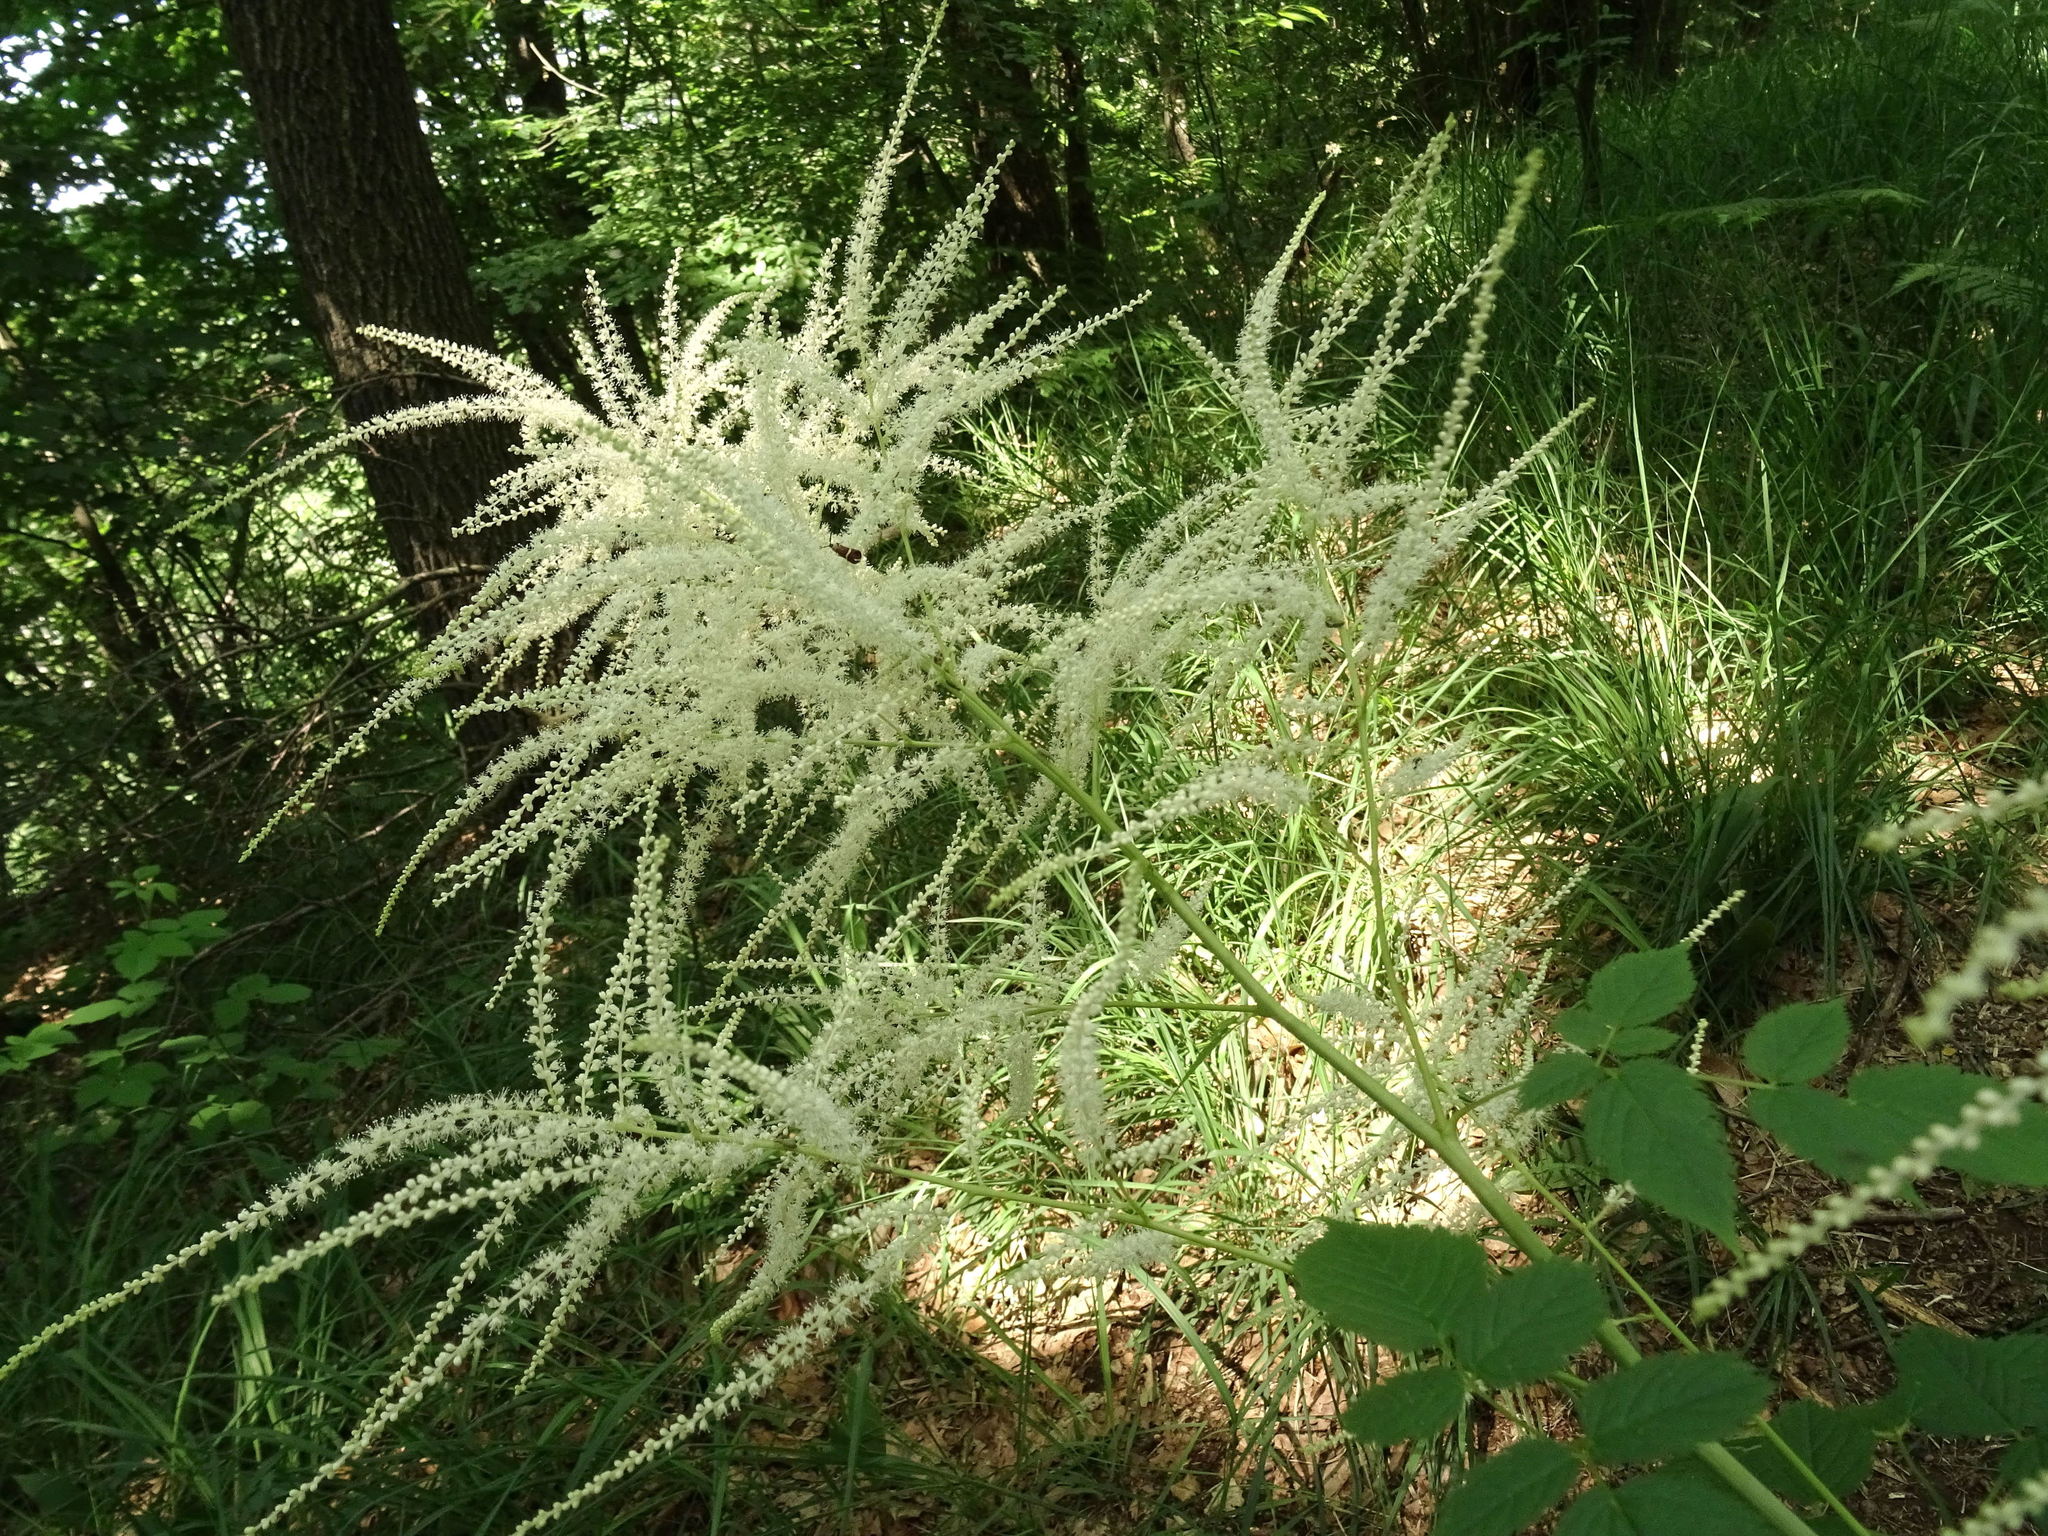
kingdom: Plantae
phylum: Tracheophyta
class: Magnoliopsida
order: Rosales
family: Rosaceae
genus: Aruncus
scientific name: Aruncus dioicus
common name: Buck's-beard
